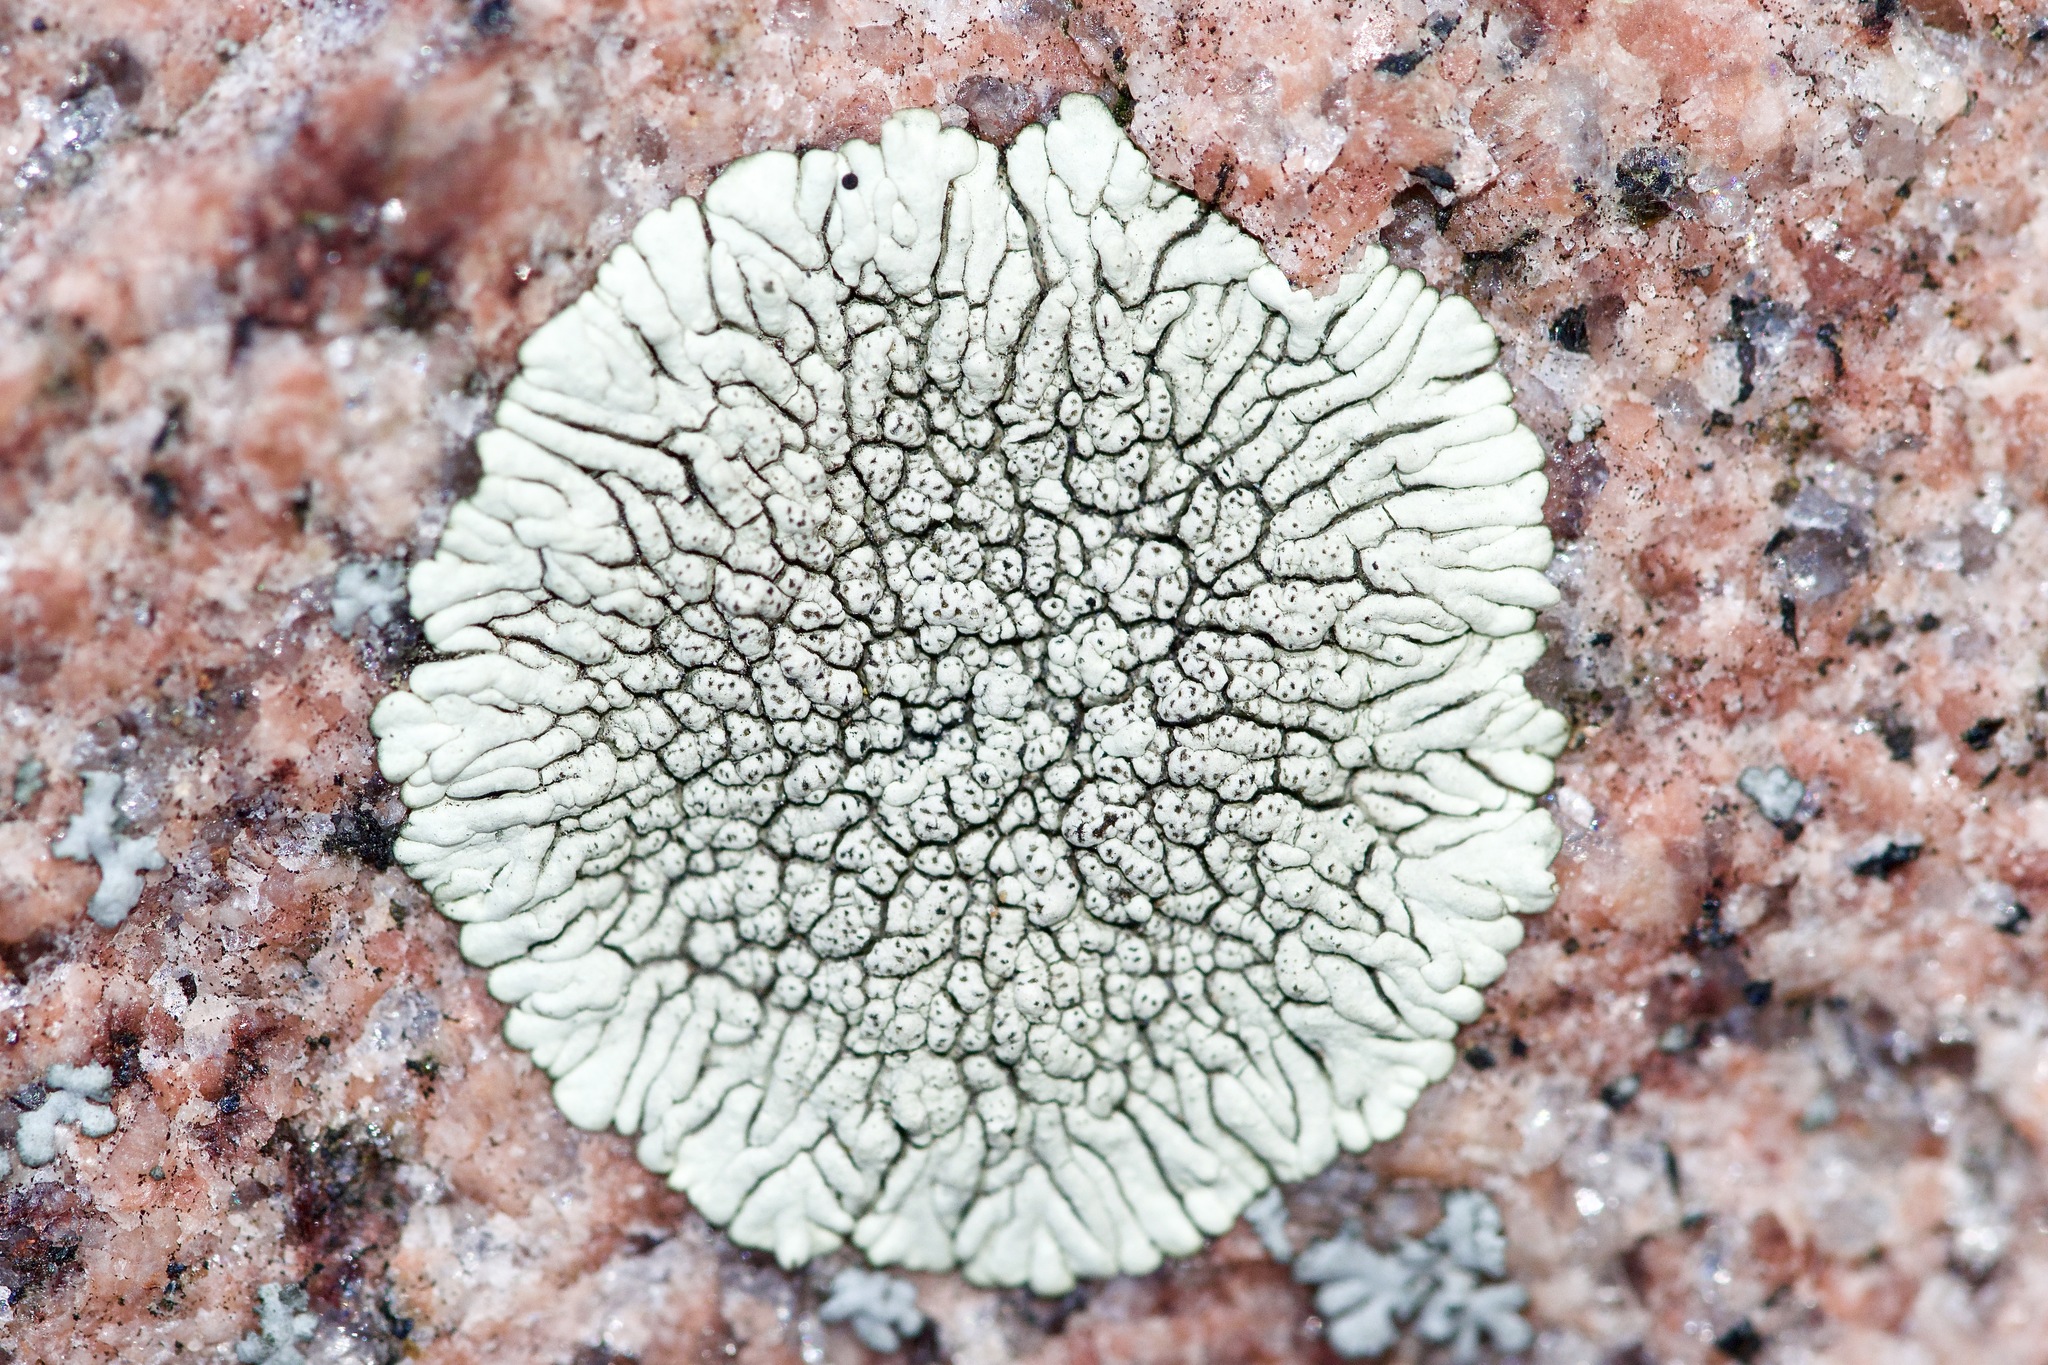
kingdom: Fungi
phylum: Ascomycota
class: Lecanoromycetes
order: Caliciales
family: Caliciaceae
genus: Dimelaena
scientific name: Dimelaena oreina
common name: Golden moonglow lichen
